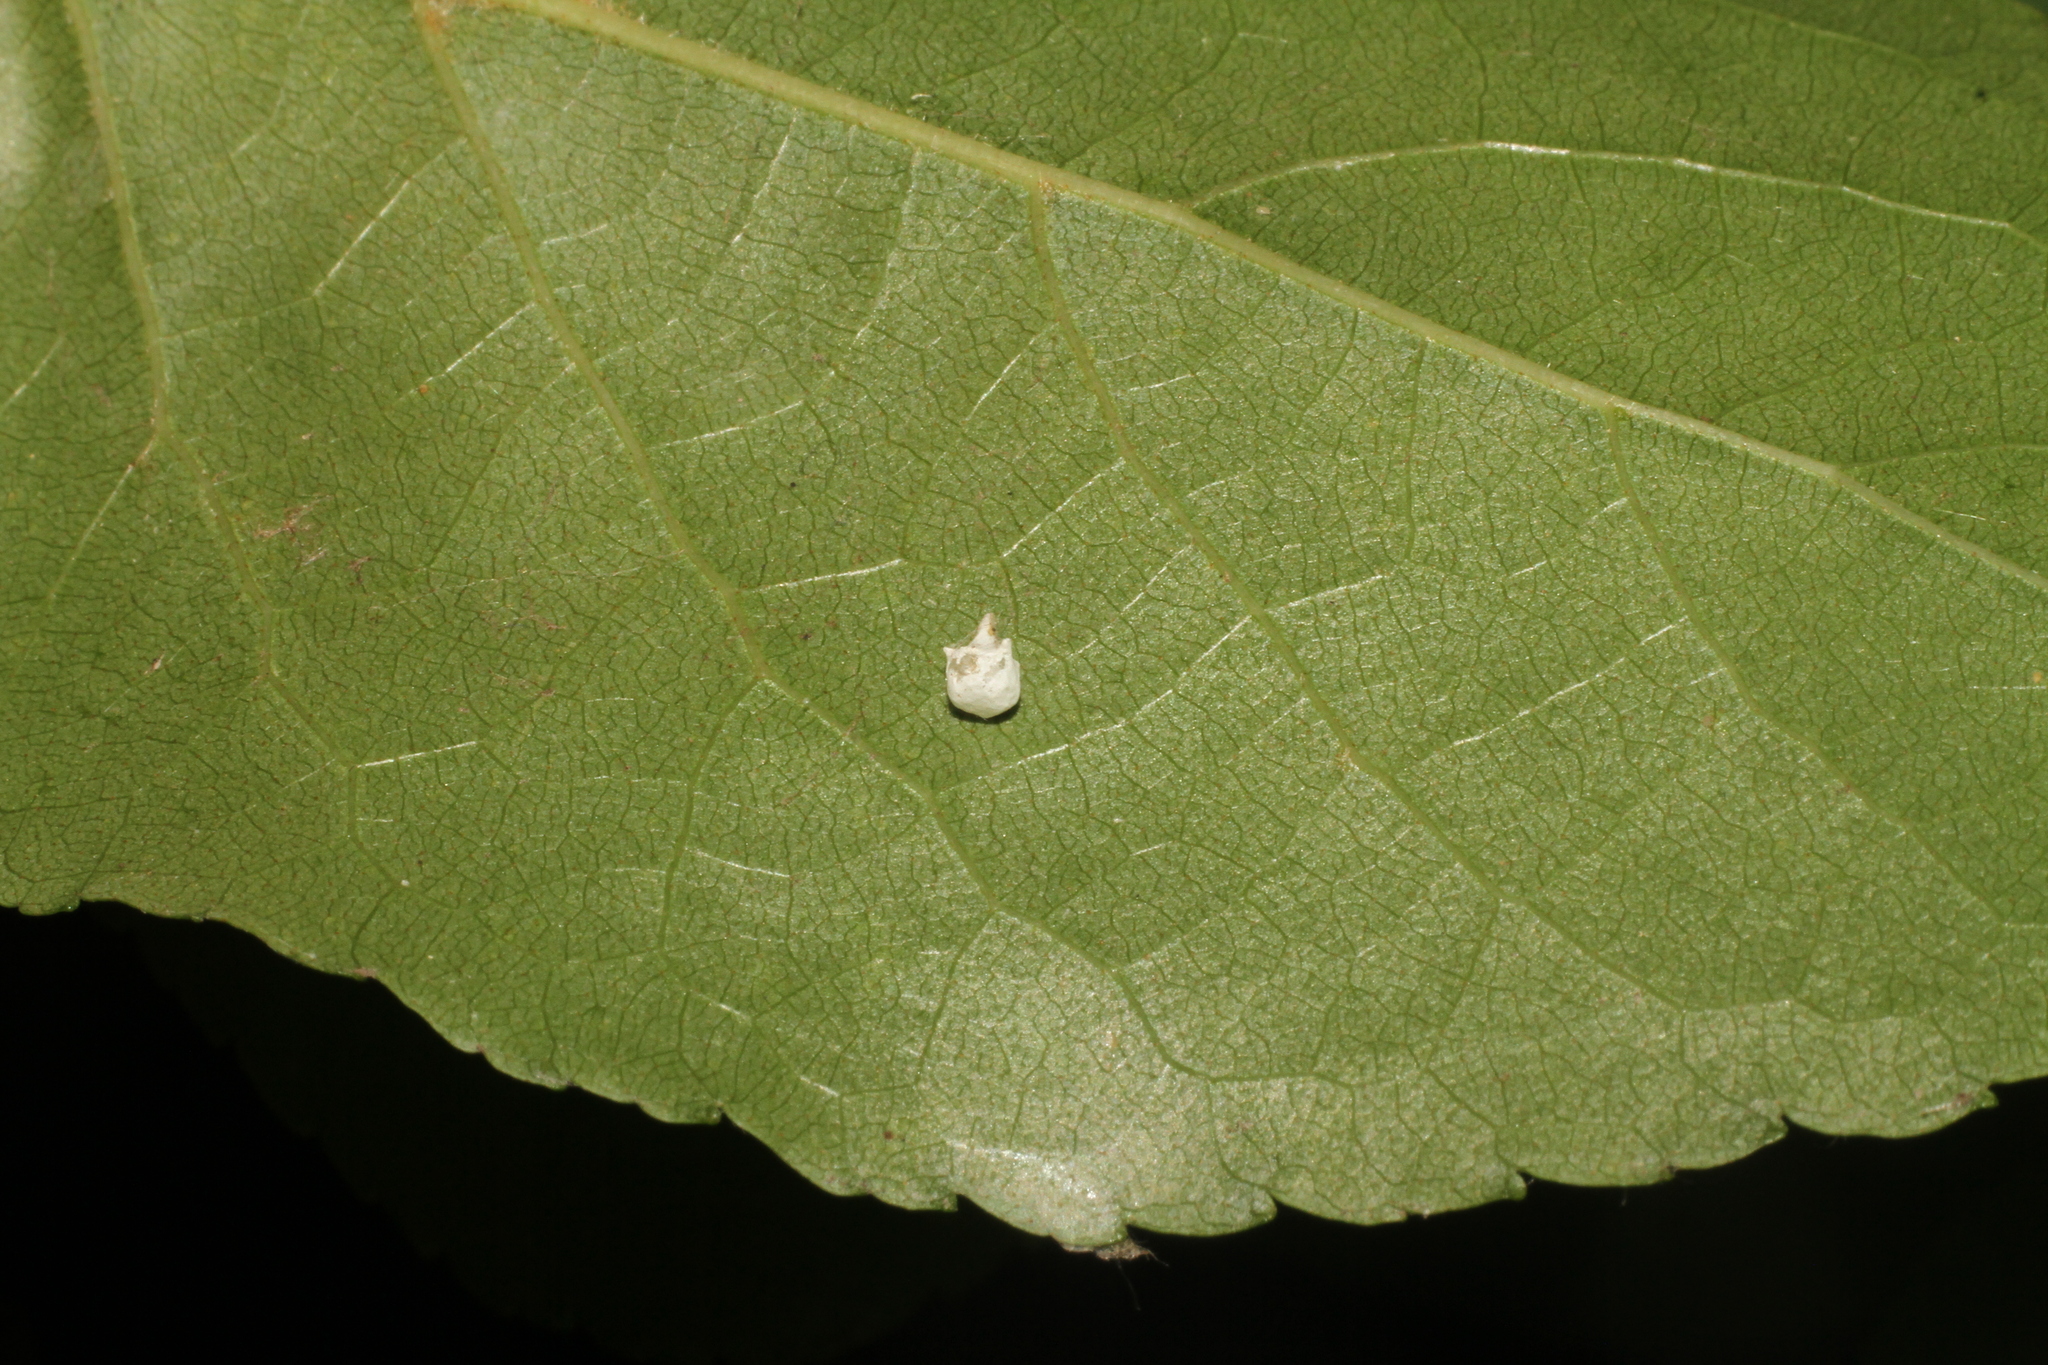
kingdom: Animalia
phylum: Arthropoda
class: Arachnida
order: Araneae
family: Theridiidae
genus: Paidiscura
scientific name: Paidiscura pallens
